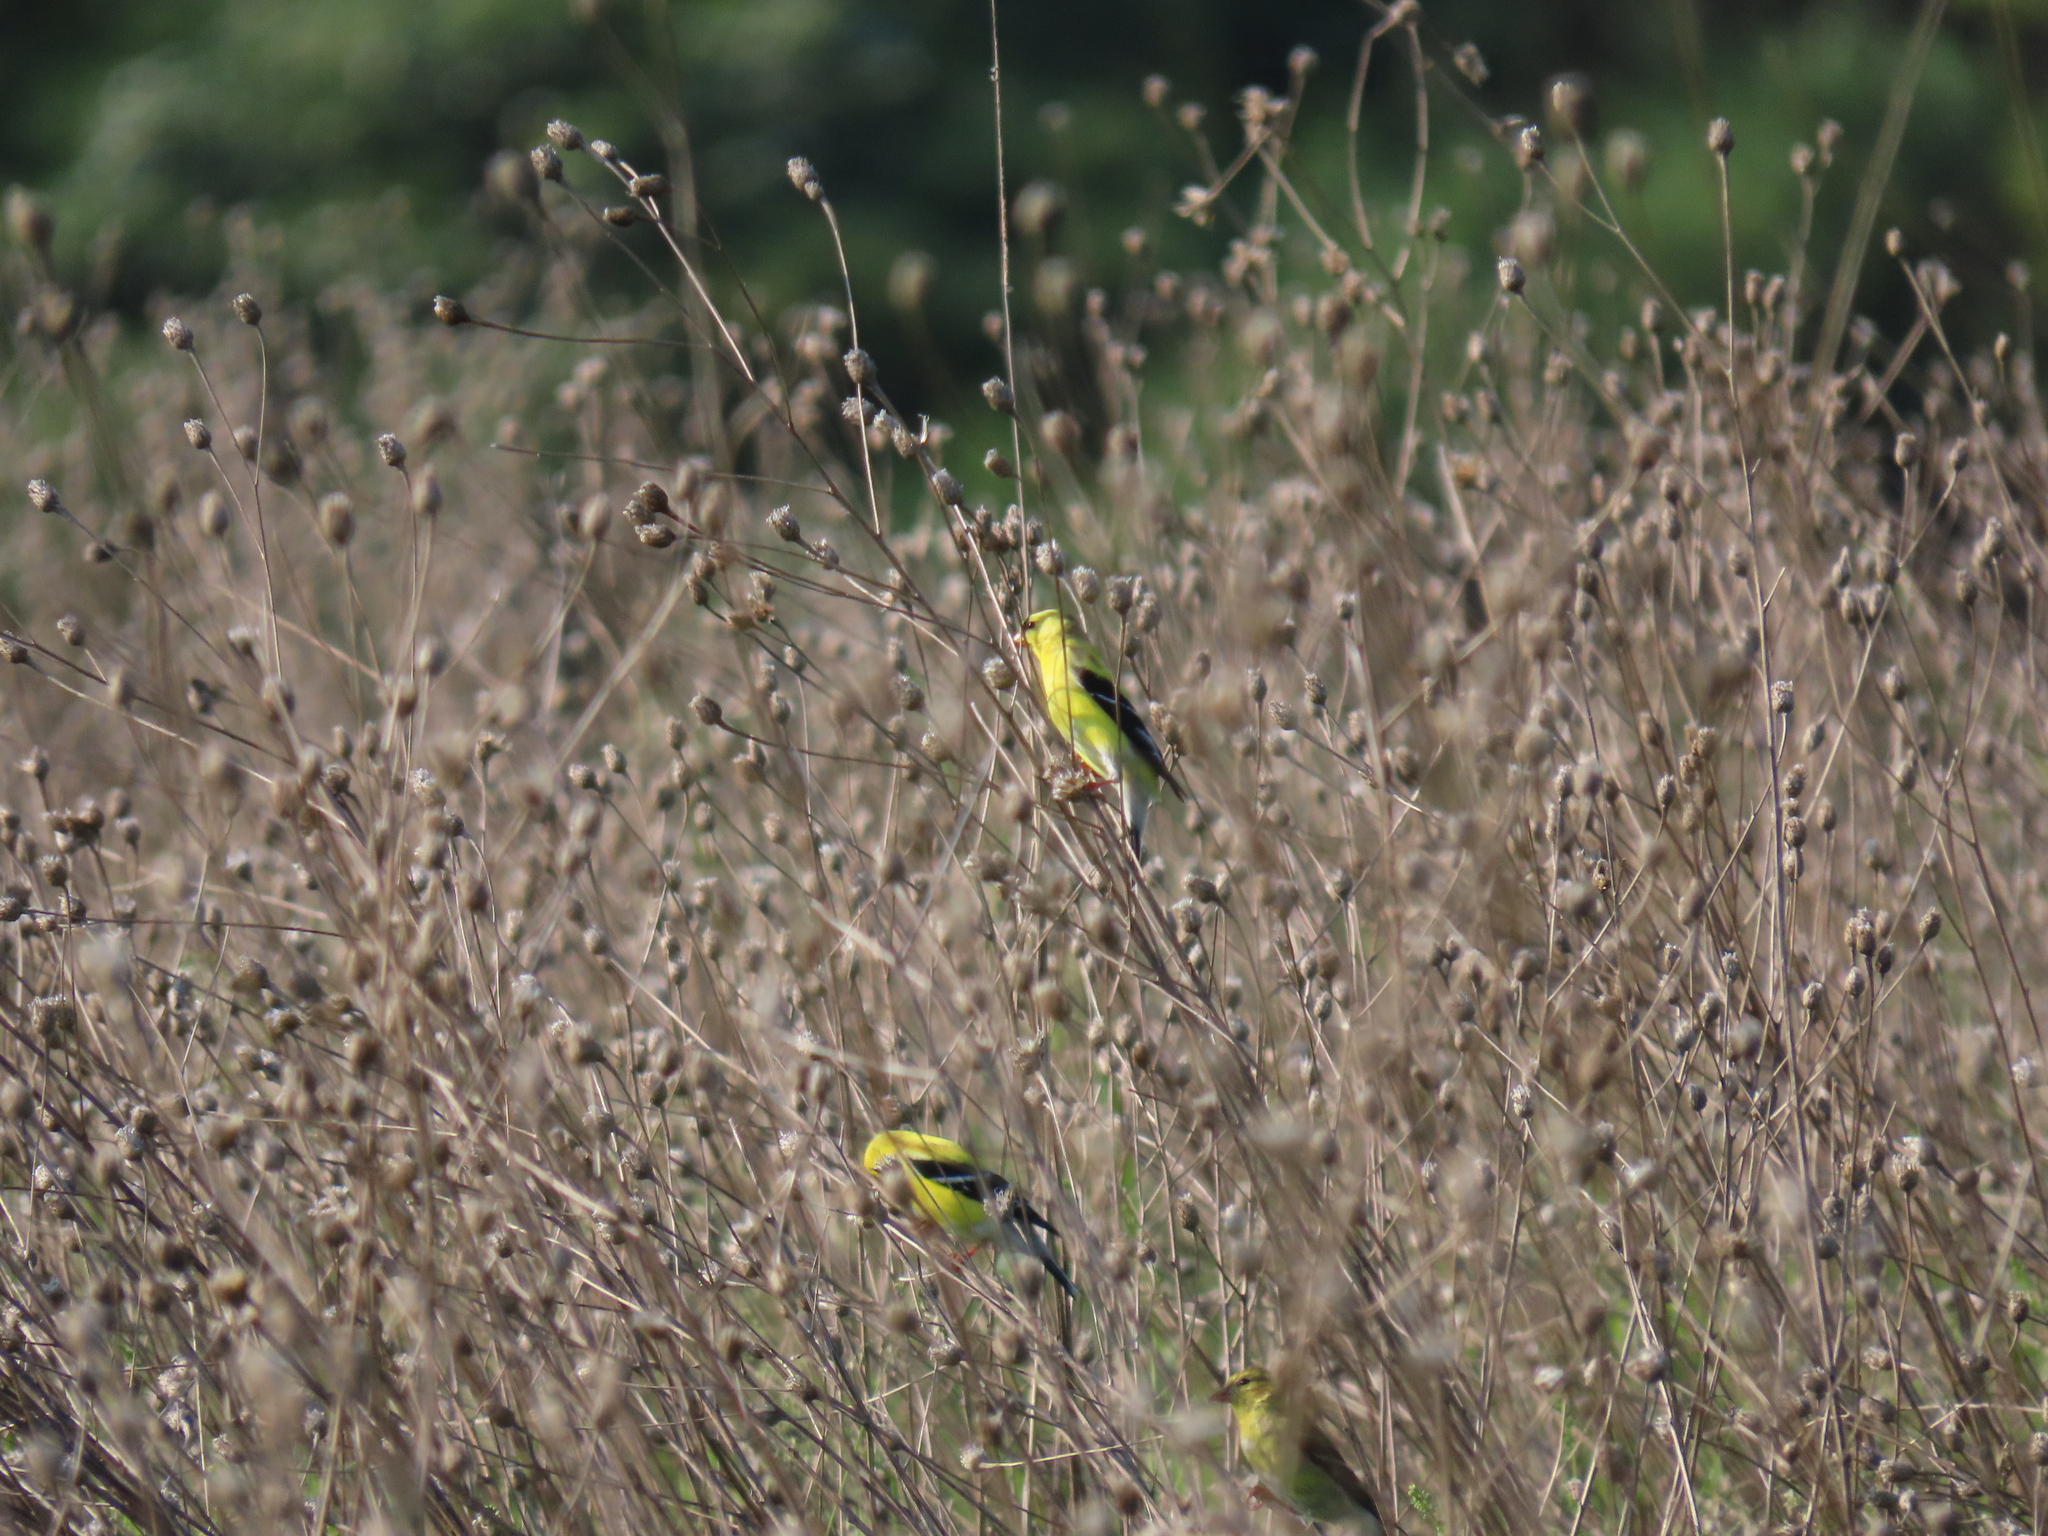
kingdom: Animalia
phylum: Chordata
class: Aves
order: Passeriformes
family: Fringillidae
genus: Spinus
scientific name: Spinus tristis
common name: American goldfinch
